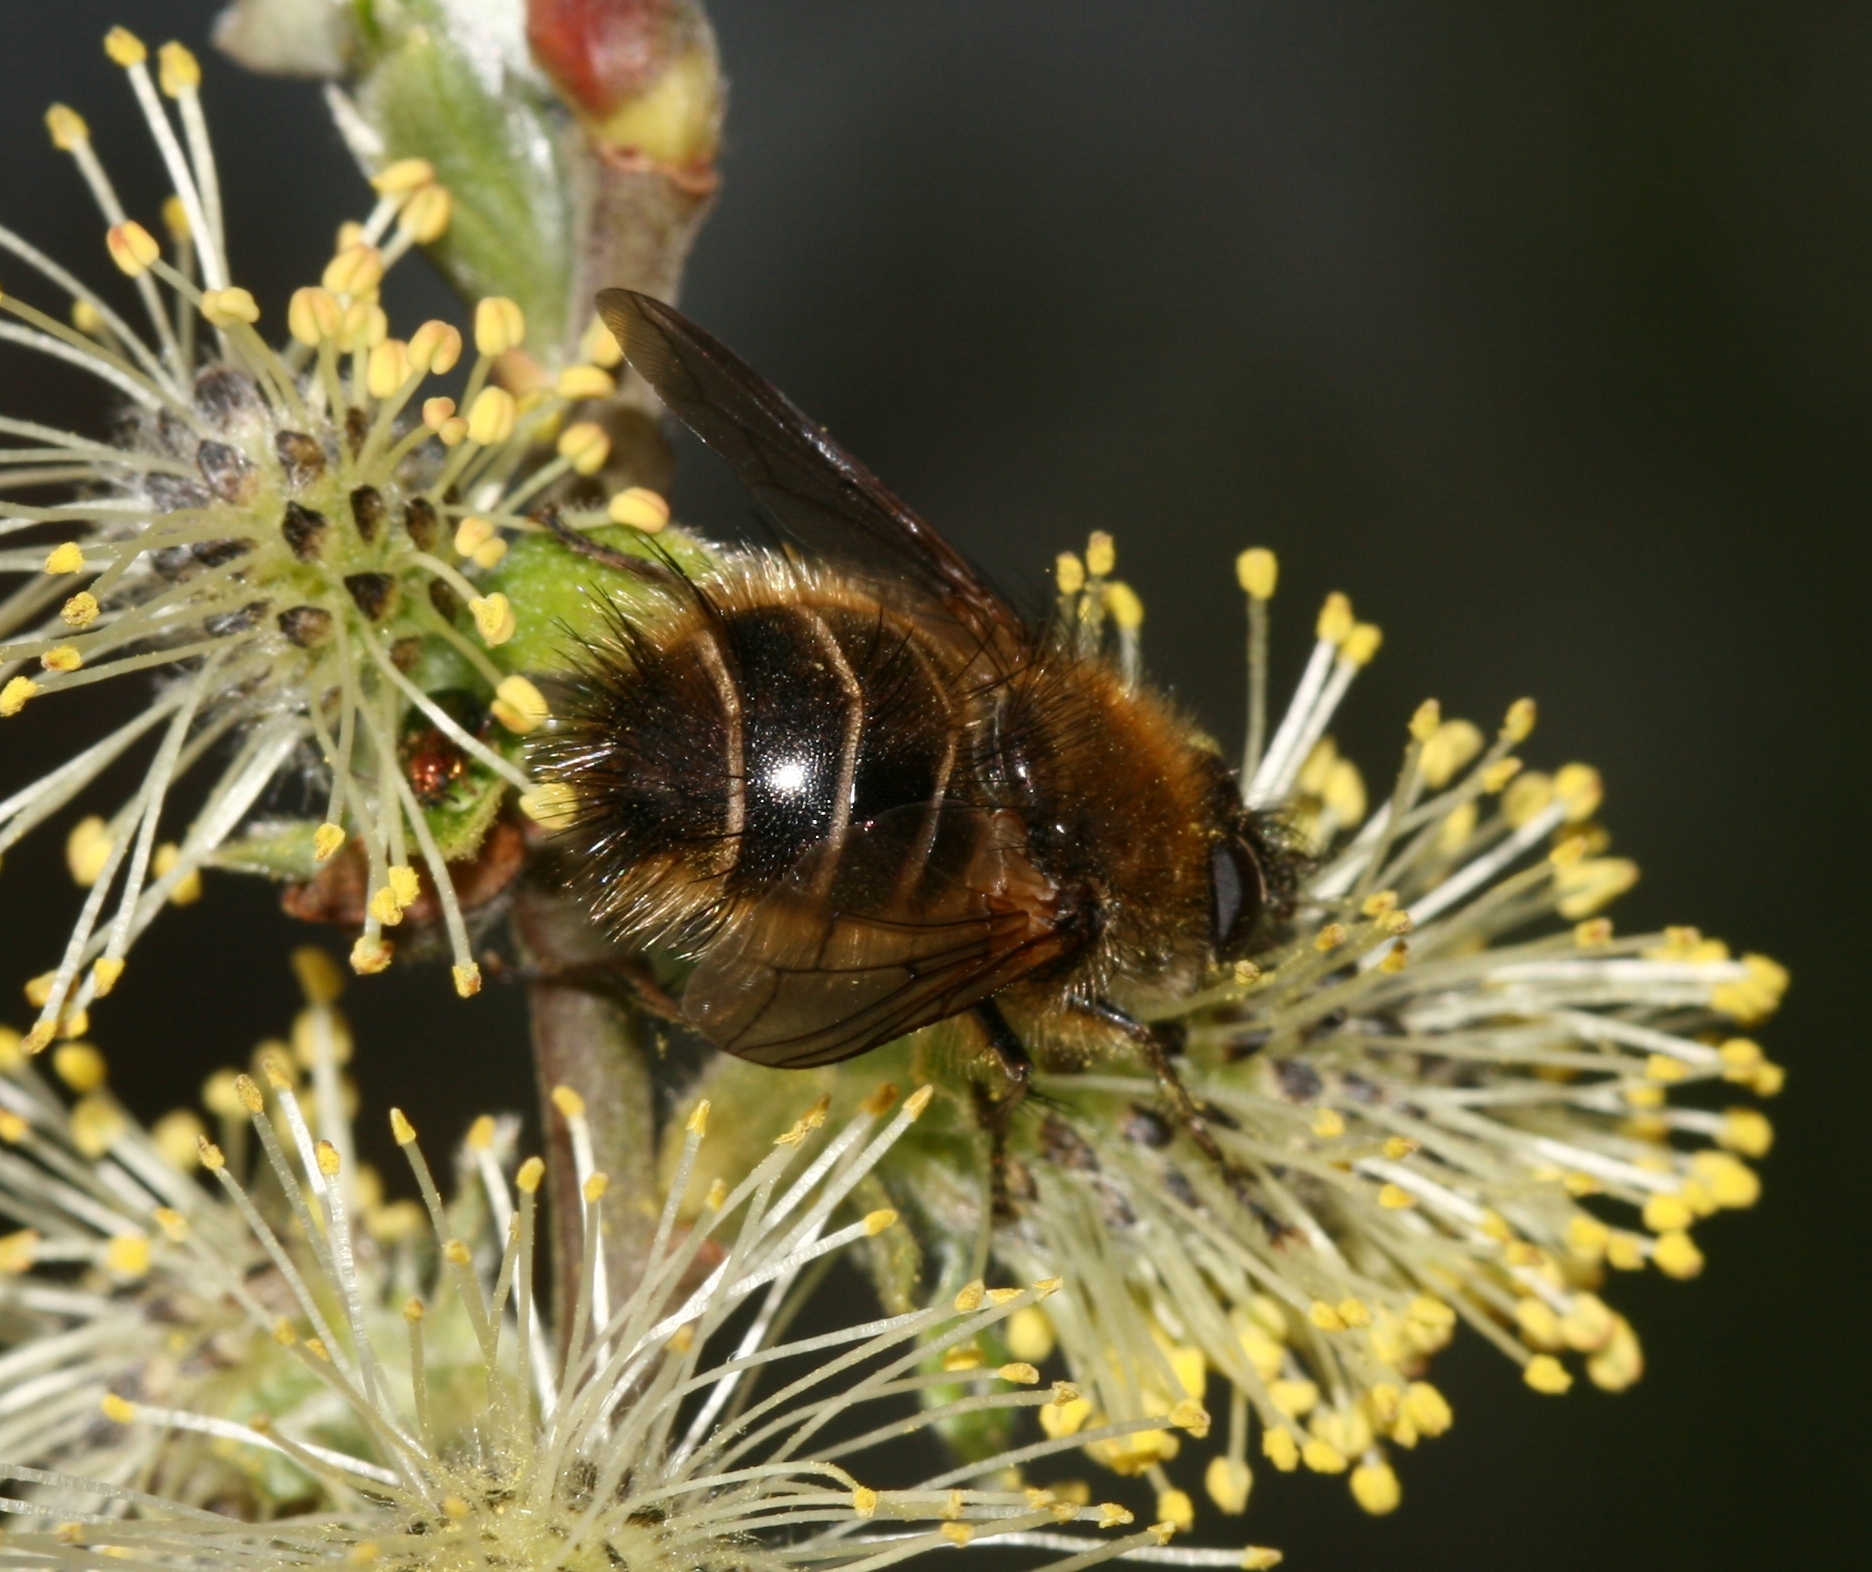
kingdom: Animalia
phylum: Arthropoda
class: Insecta
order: Diptera
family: Tachinidae
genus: Tachina
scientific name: Tachina ursina
